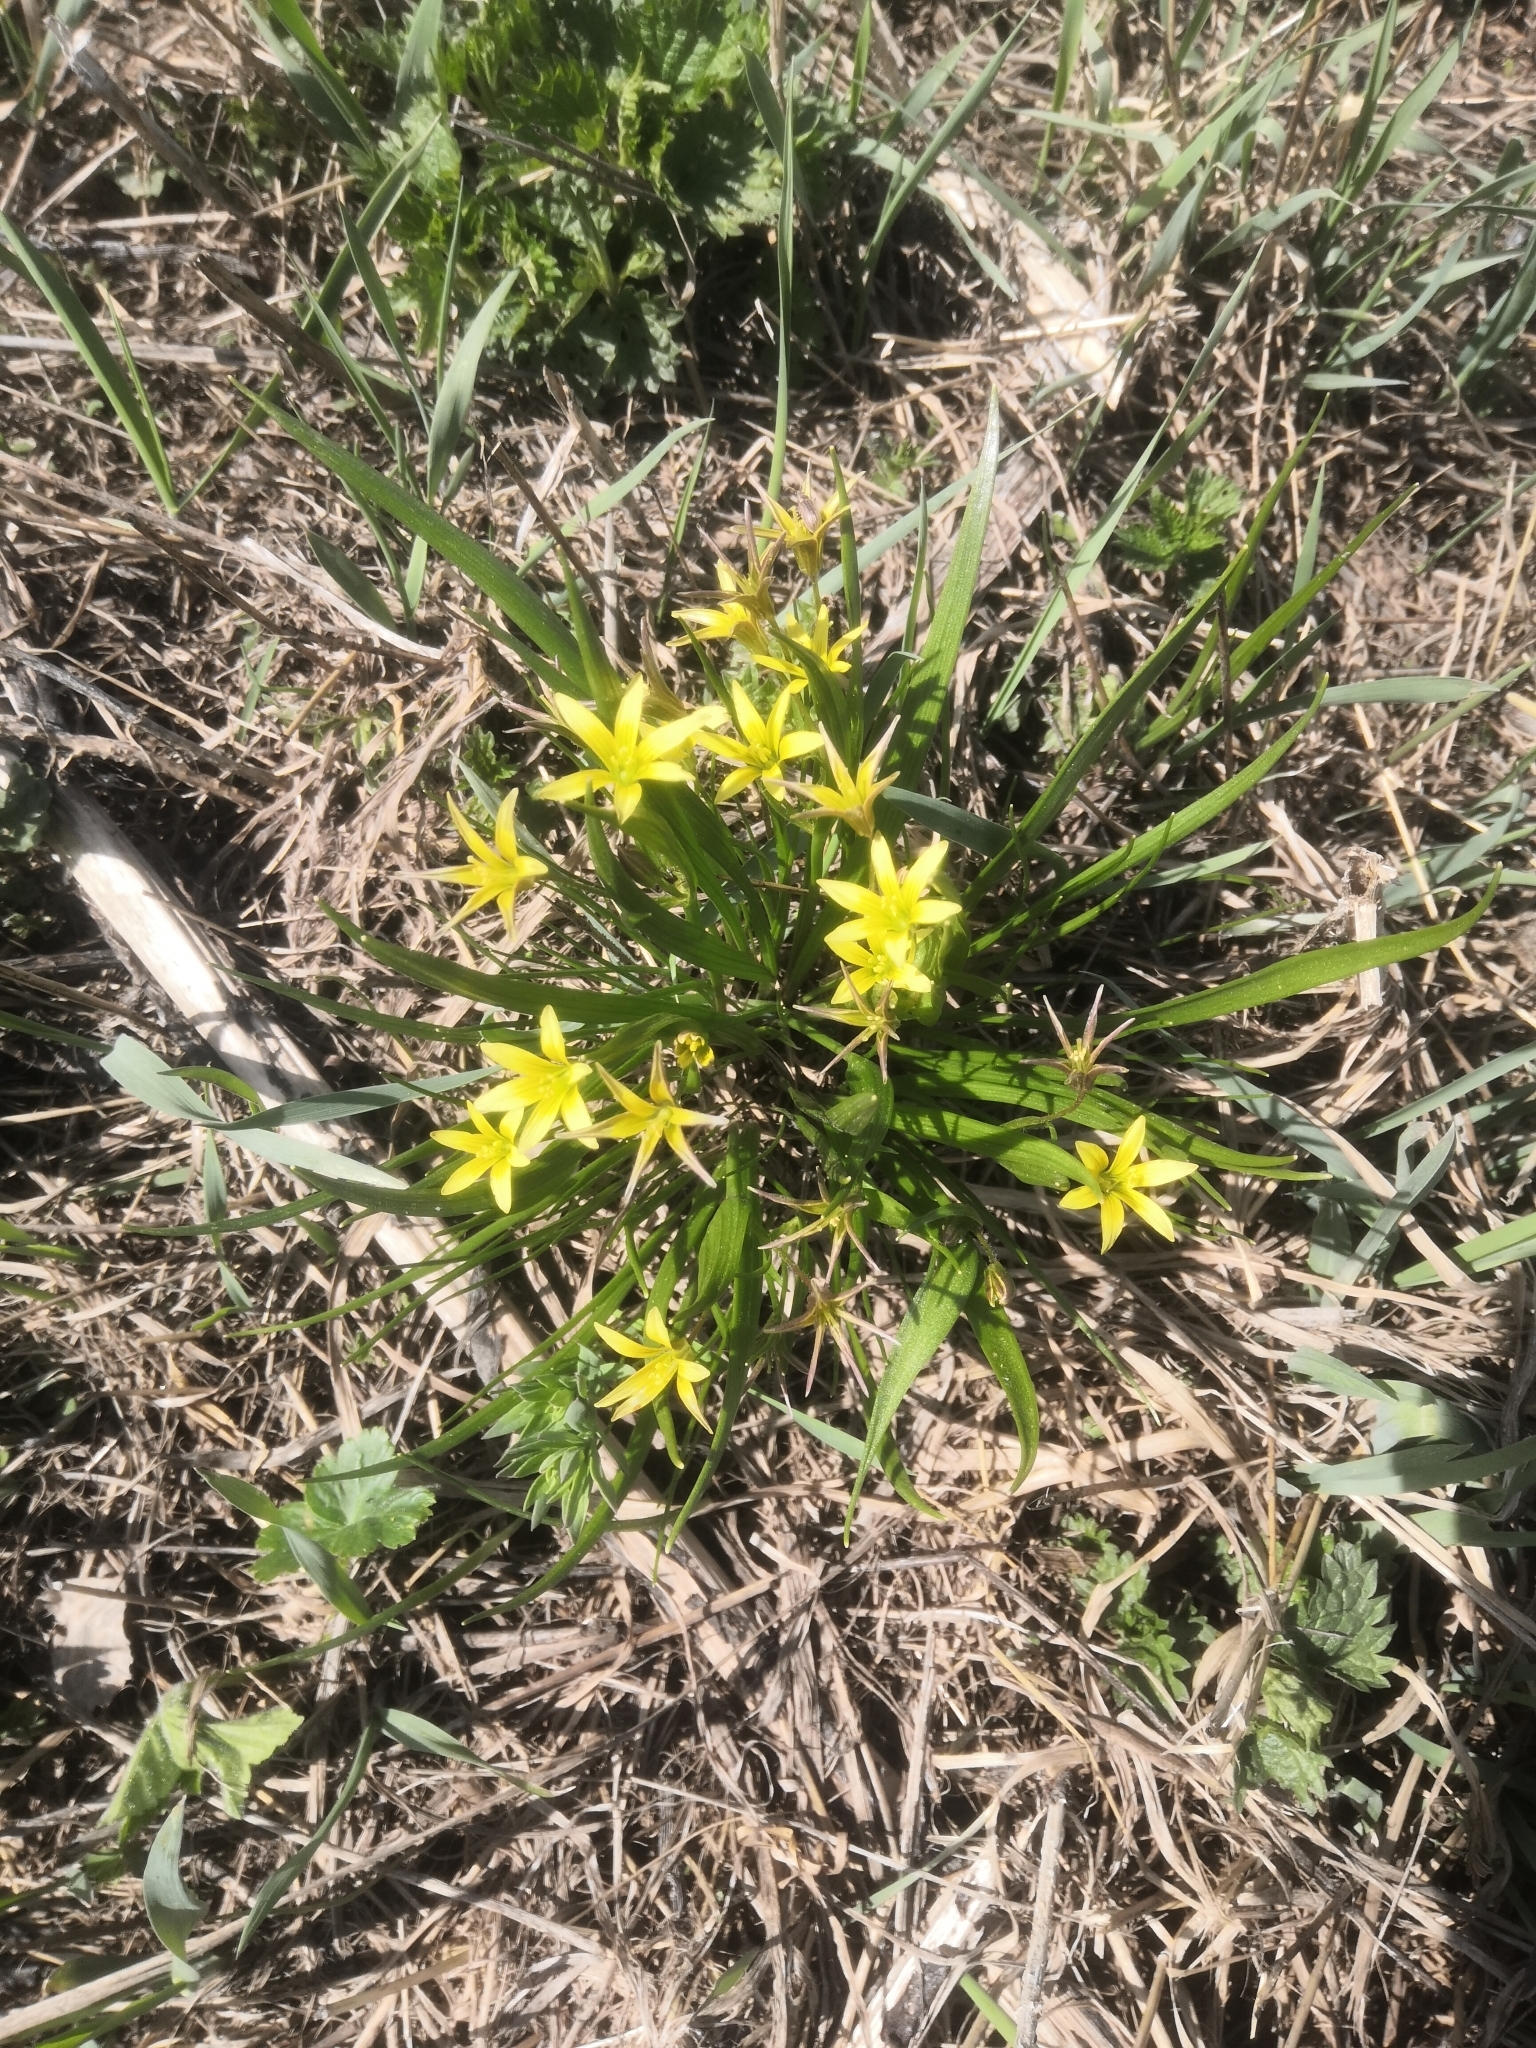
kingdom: Plantae
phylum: Tracheophyta
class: Liliopsida
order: Liliales
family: Liliaceae
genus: Gagea
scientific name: Gagea granulosa
